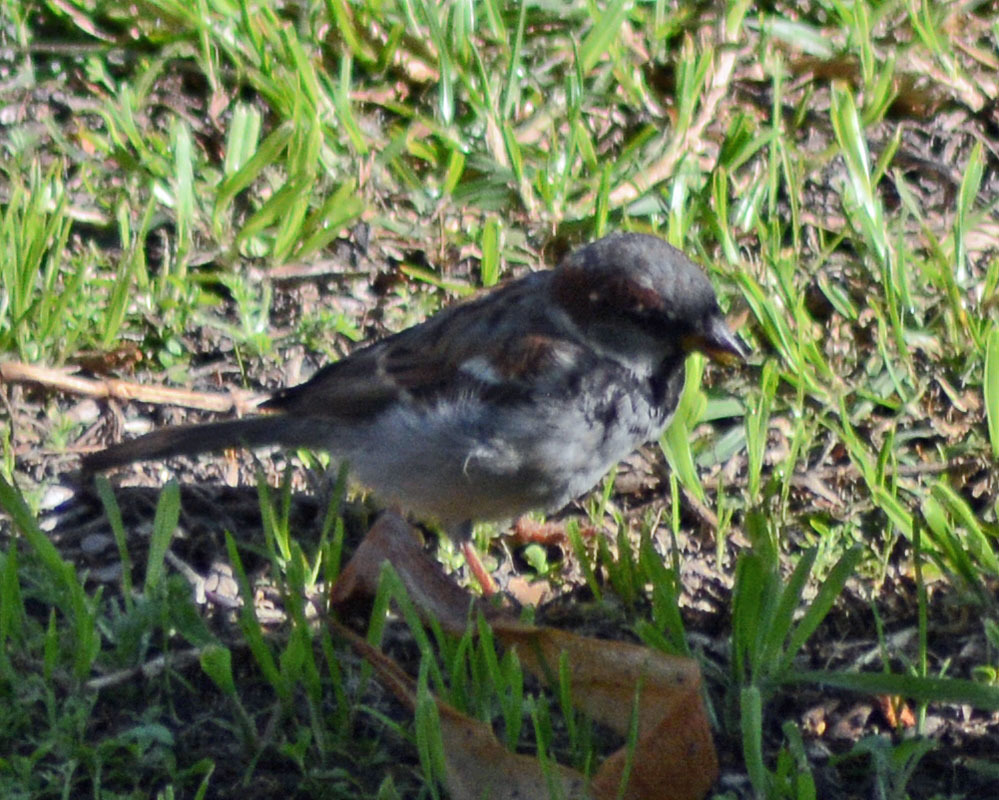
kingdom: Animalia
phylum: Chordata
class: Aves
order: Passeriformes
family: Passeridae
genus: Passer
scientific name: Passer domesticus
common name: House sparrow
